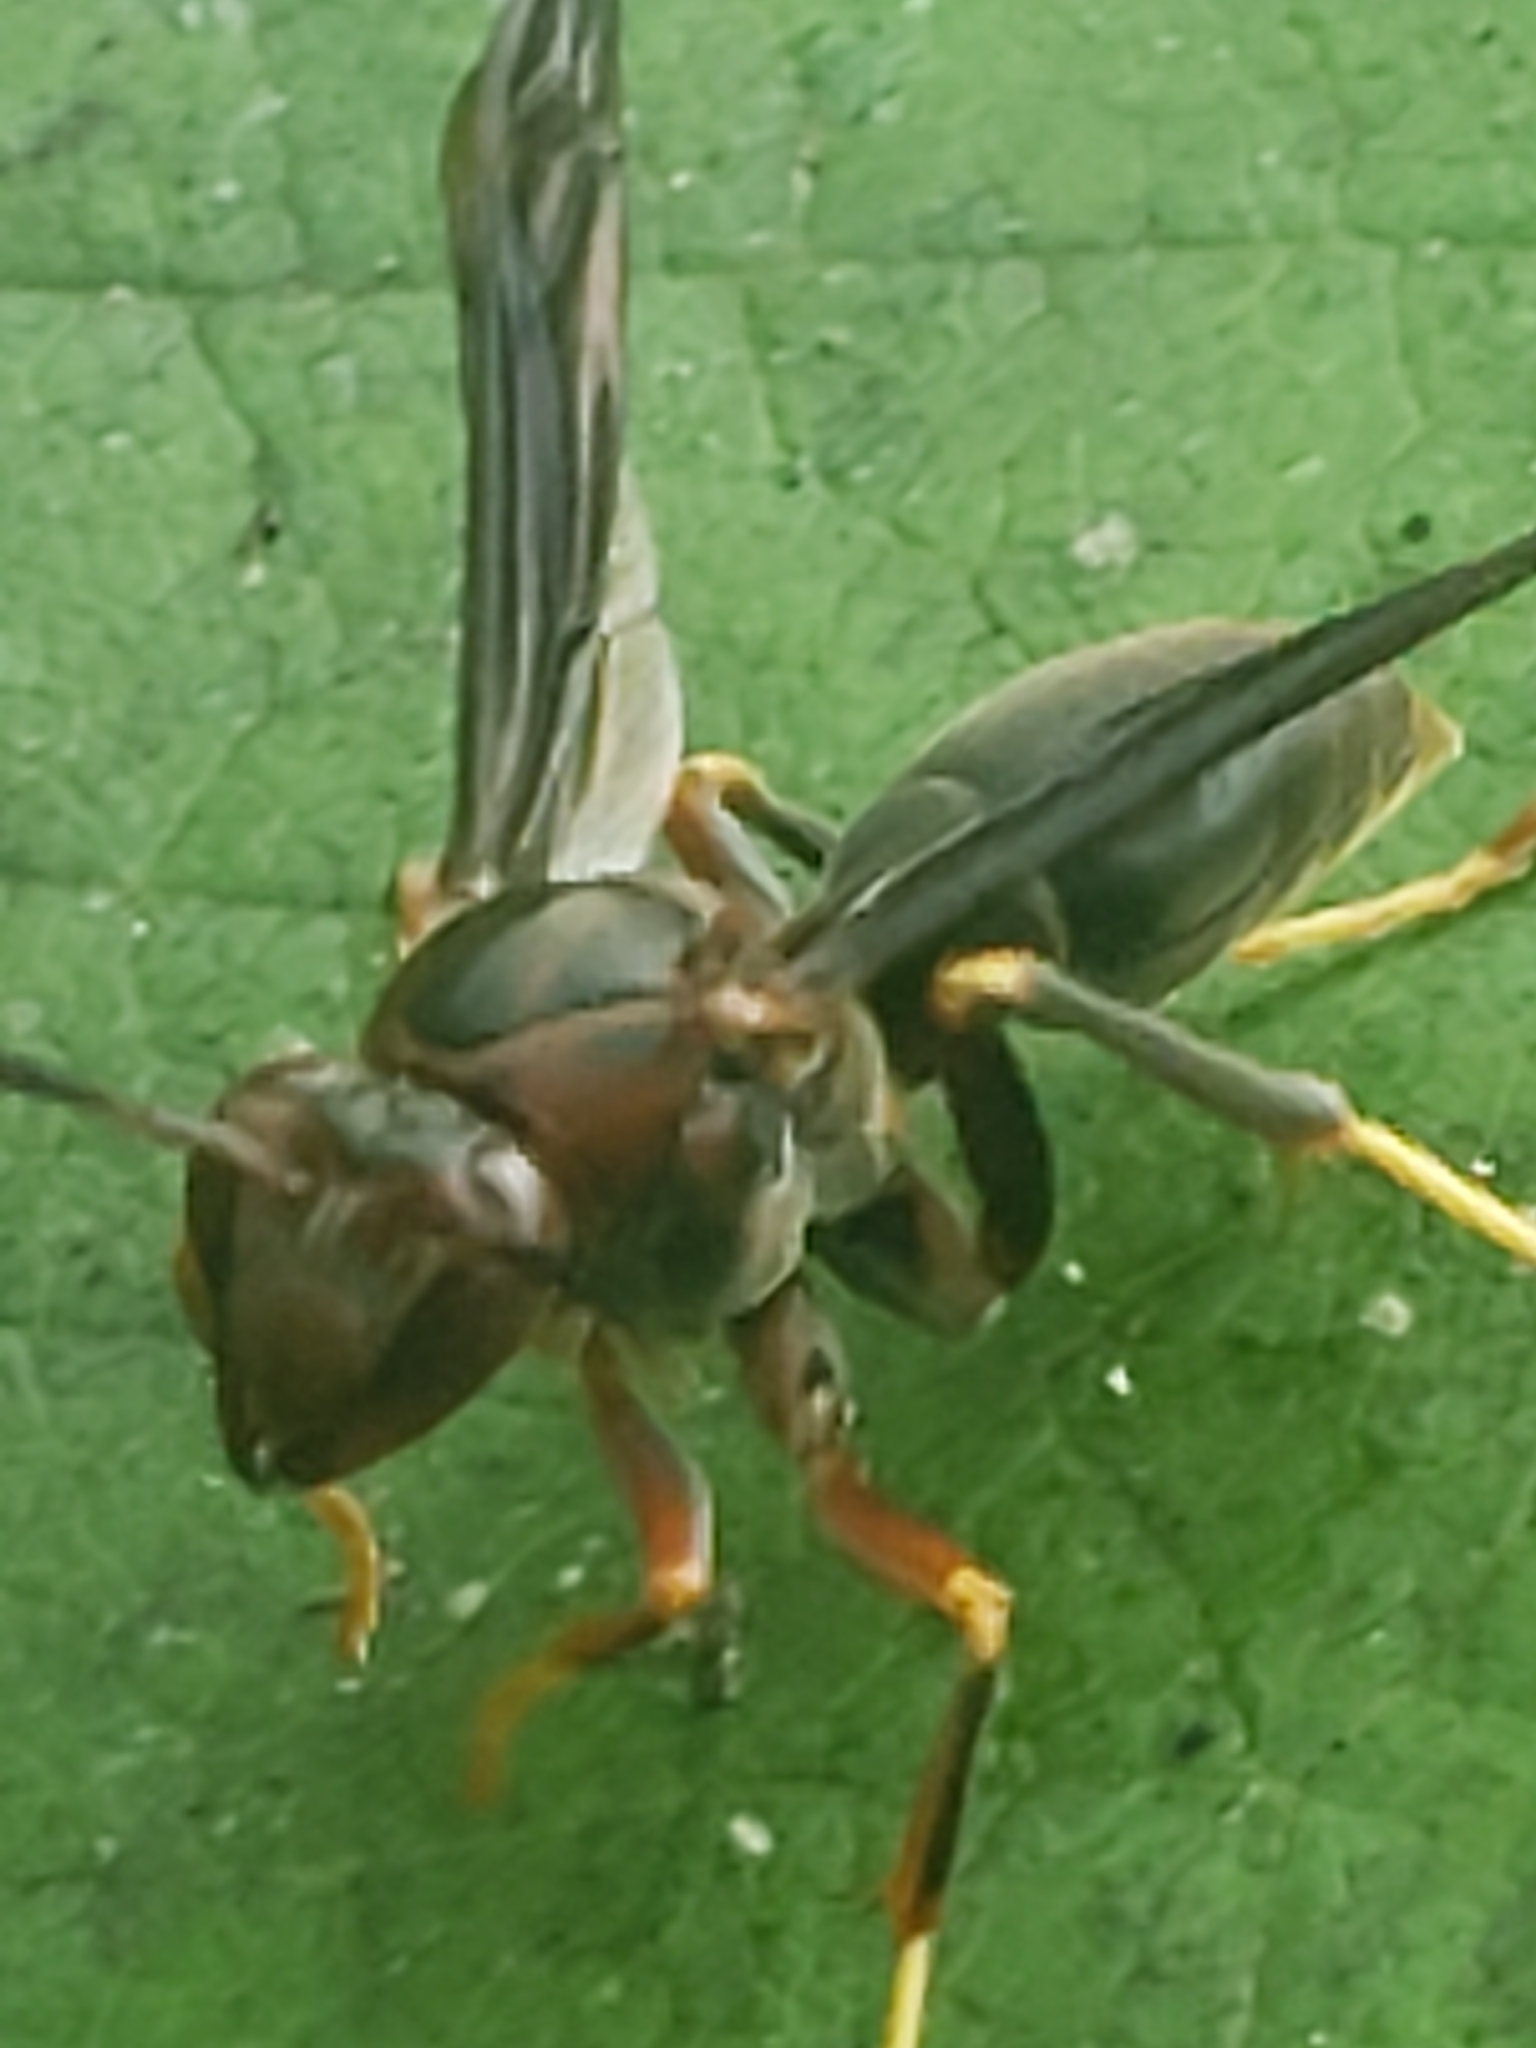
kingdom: Animalia
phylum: Arthropoda
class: Insecta
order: Hymenoptera
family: Eumenidae
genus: Polistes
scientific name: Polistes metricus
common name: Metric paper wasp
